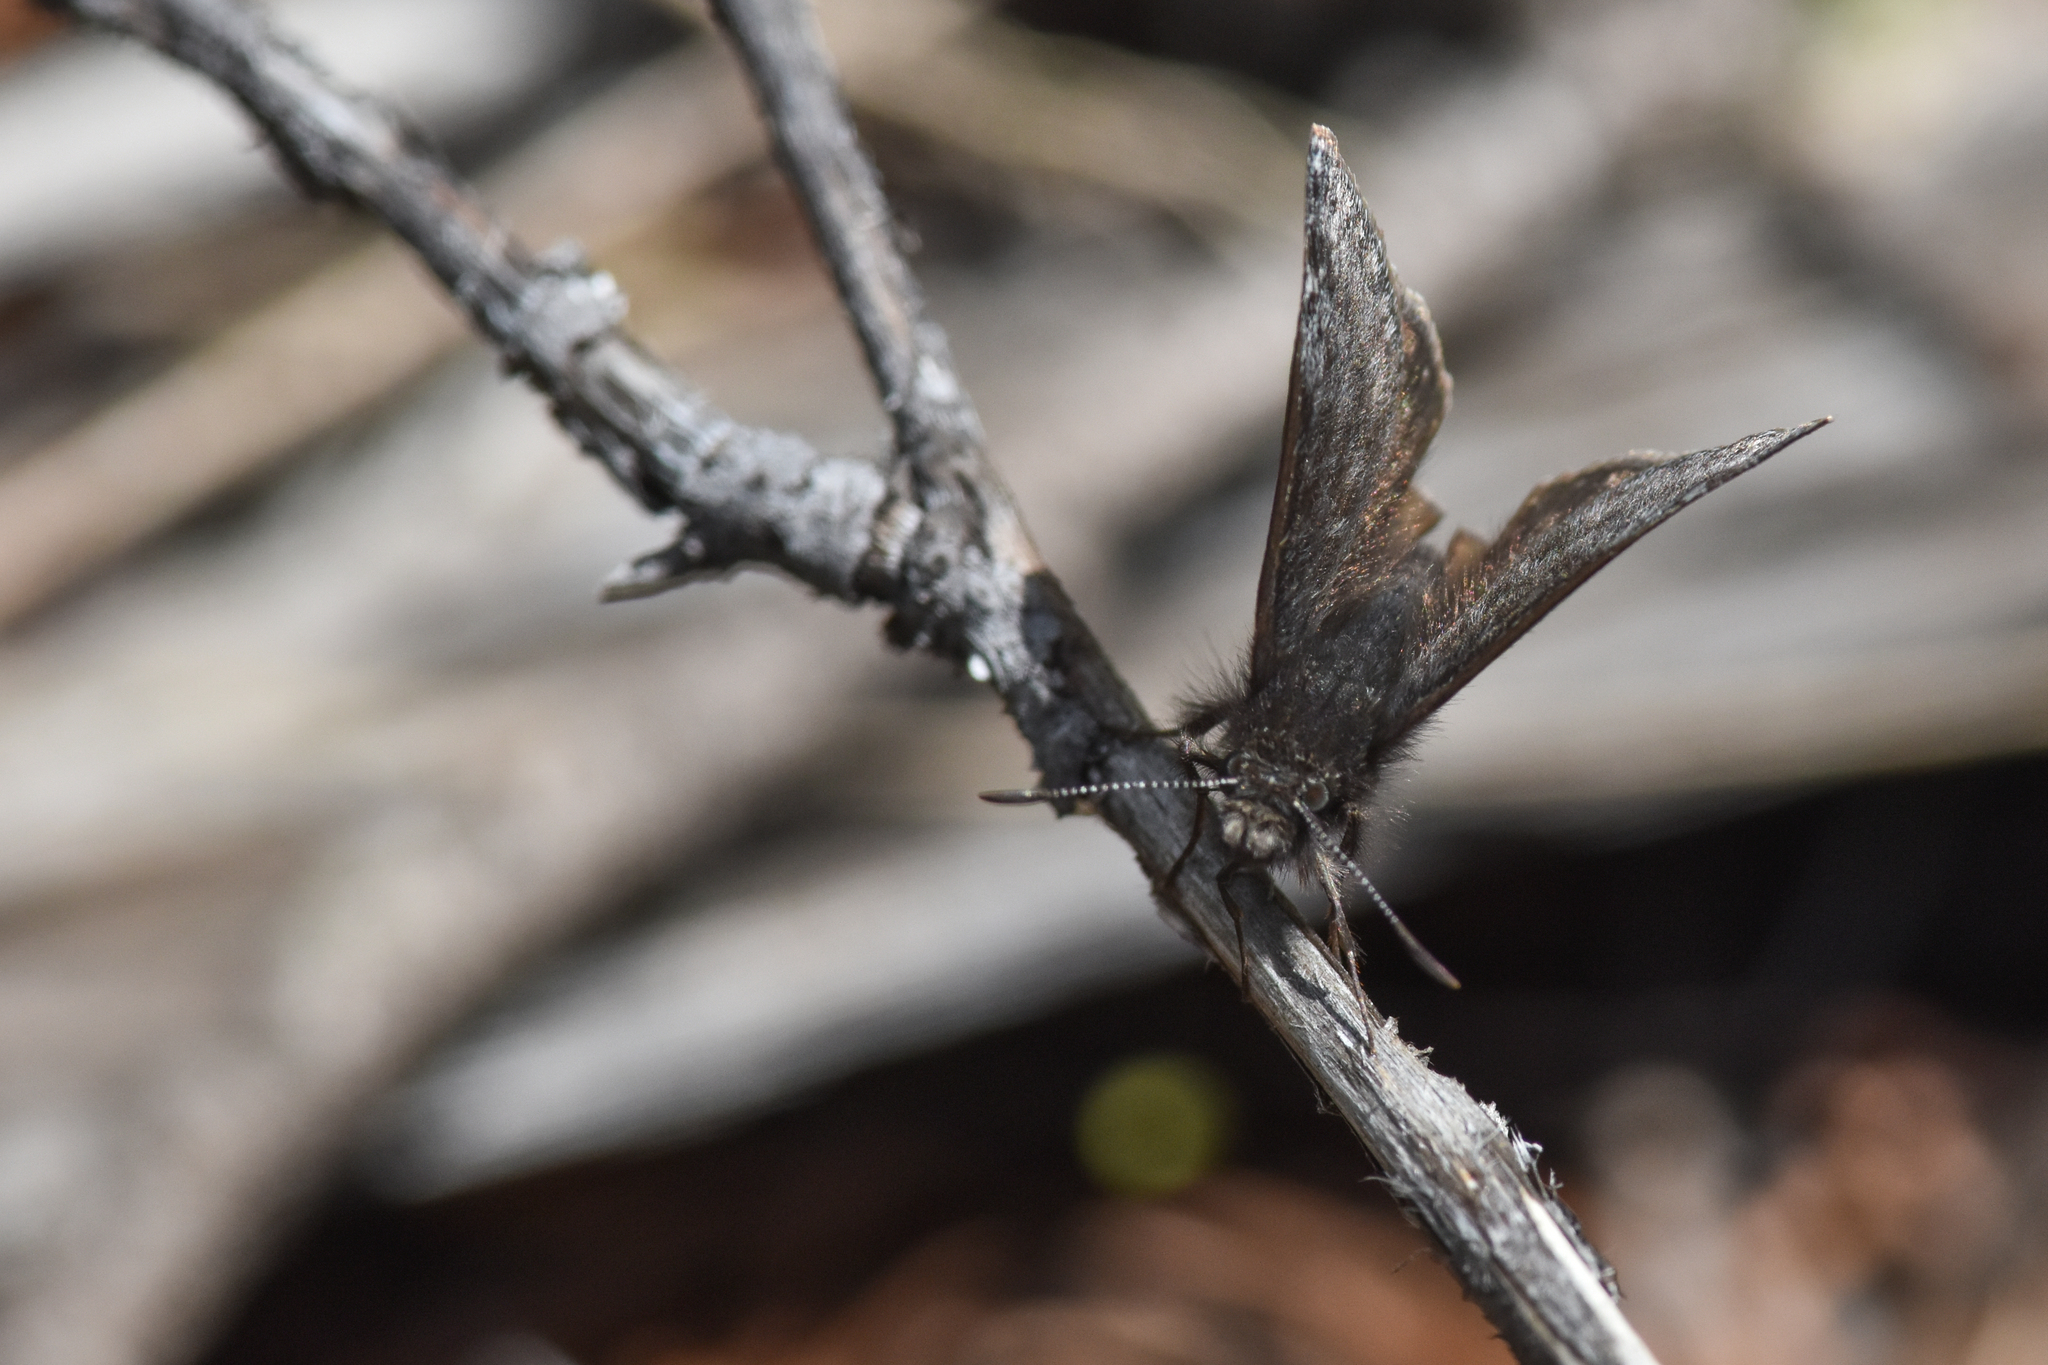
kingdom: Animalia
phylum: Arthropoda
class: Insecta
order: Lepidoptera
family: Hesperiidae
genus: Erynnis
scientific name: Erynnis persius
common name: Persius duskywing
